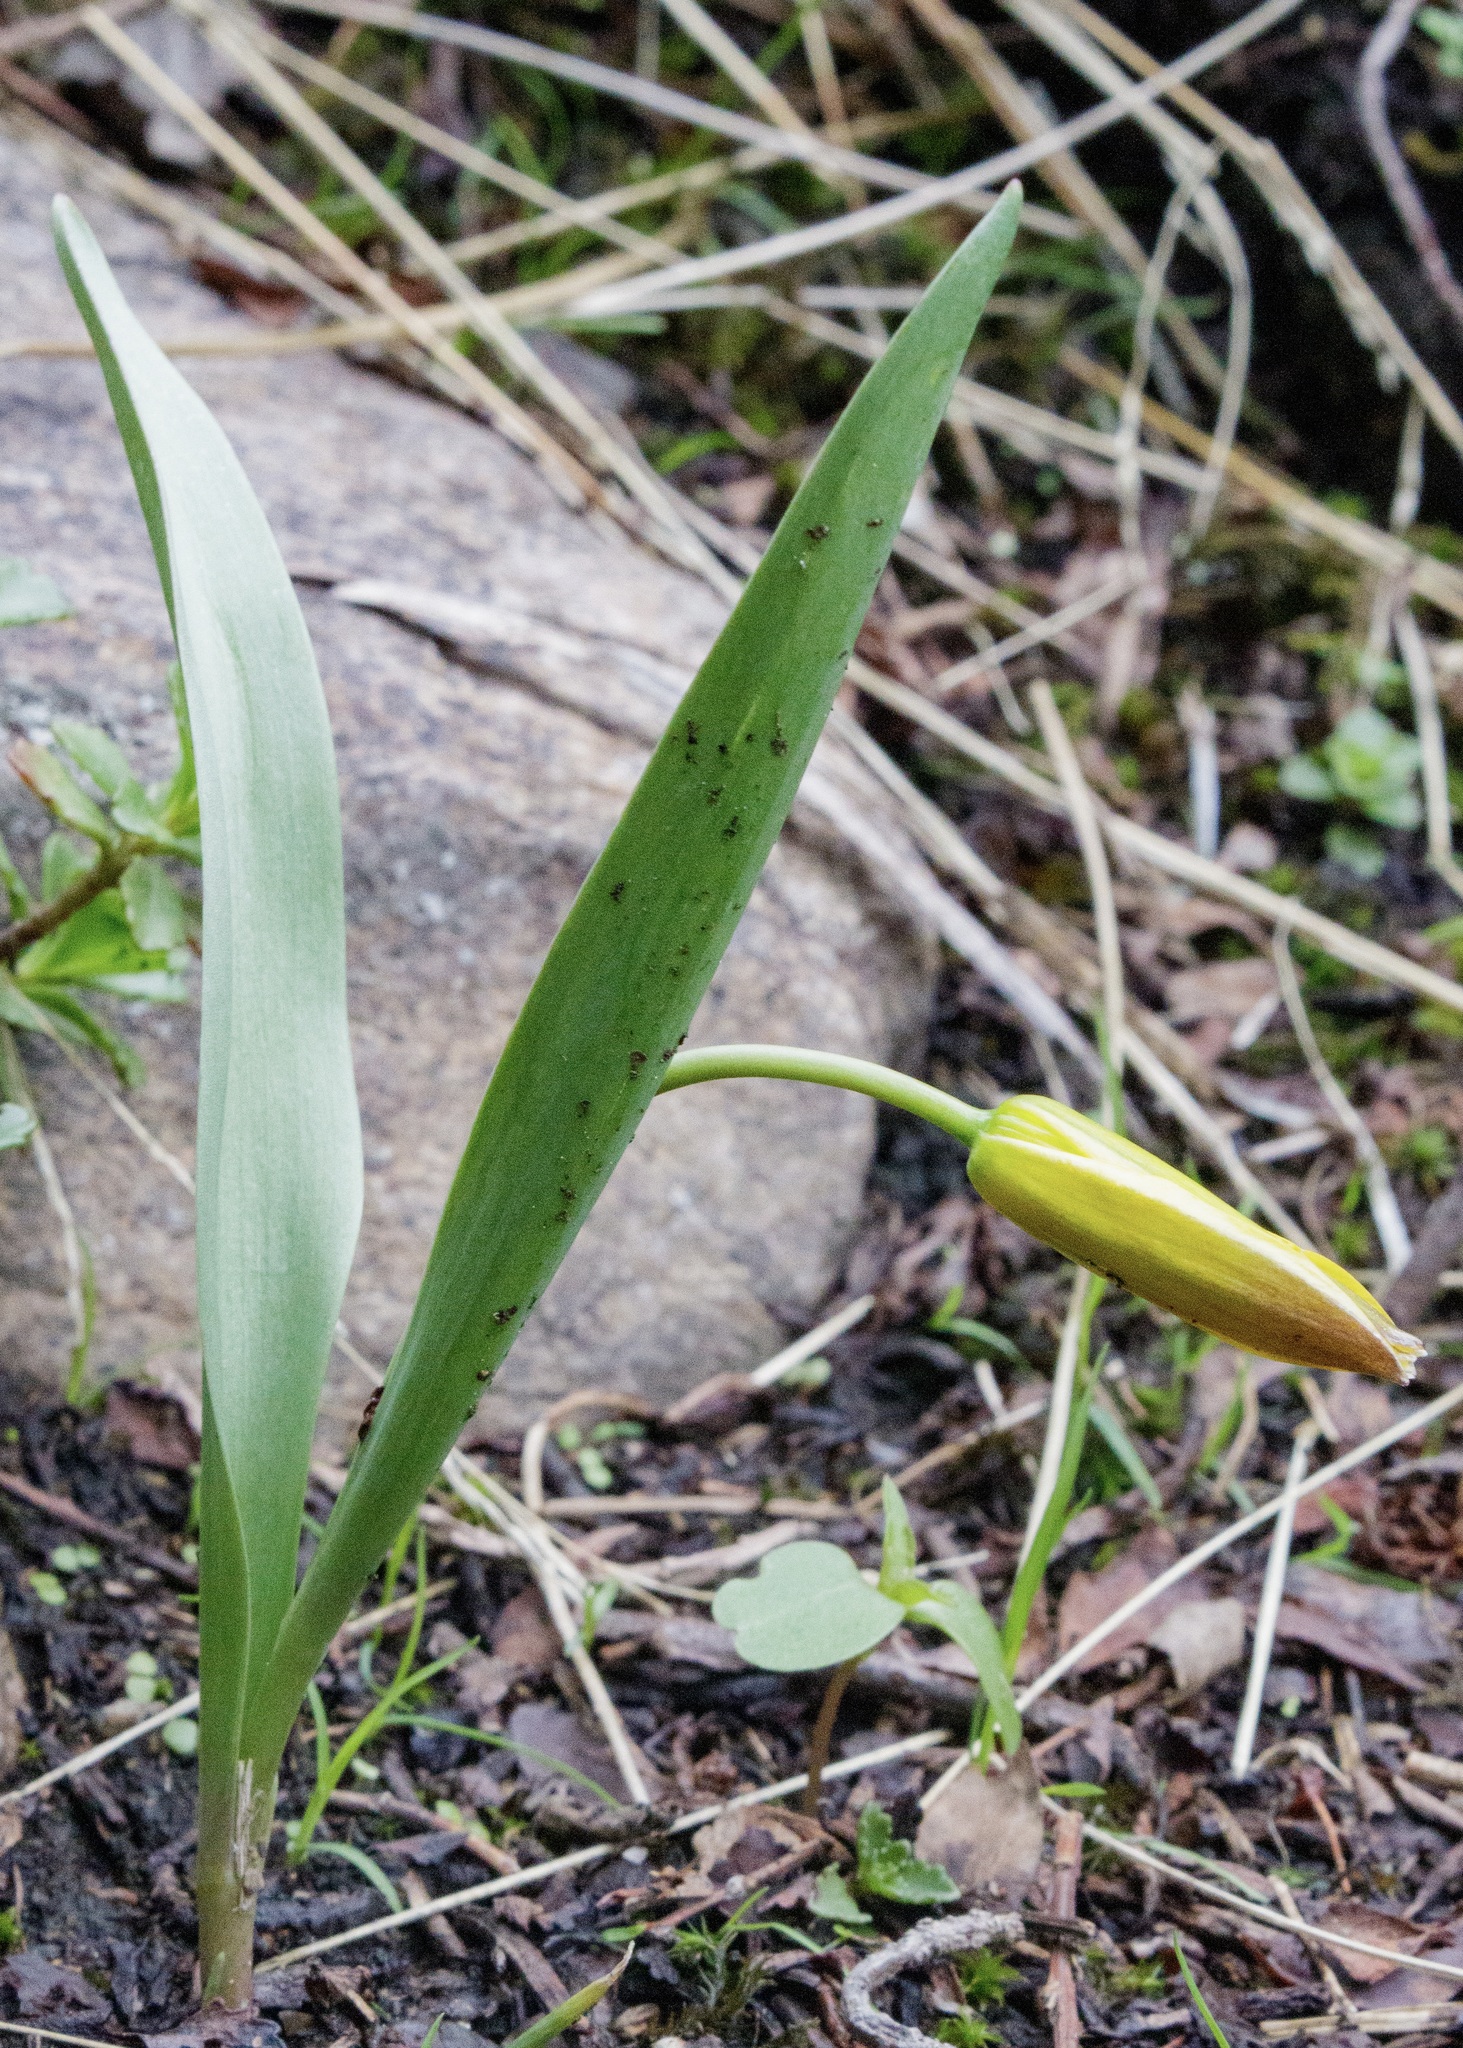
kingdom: Plantae
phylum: Tracheophyta
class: Liliopsida
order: Liliales
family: Liliaceae
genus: Tulipa
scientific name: Tulipa dasystemon
